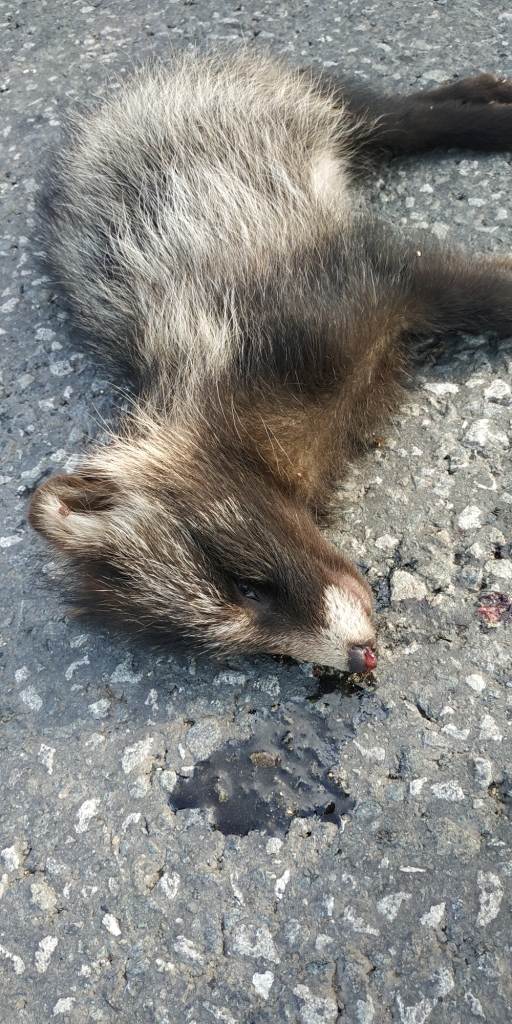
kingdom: Animalia
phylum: Chordata
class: Mammalia
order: Carnivora
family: Canidae
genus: Nyctereutes
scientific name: Nyctereutes procyonoides
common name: Raccoon dog
